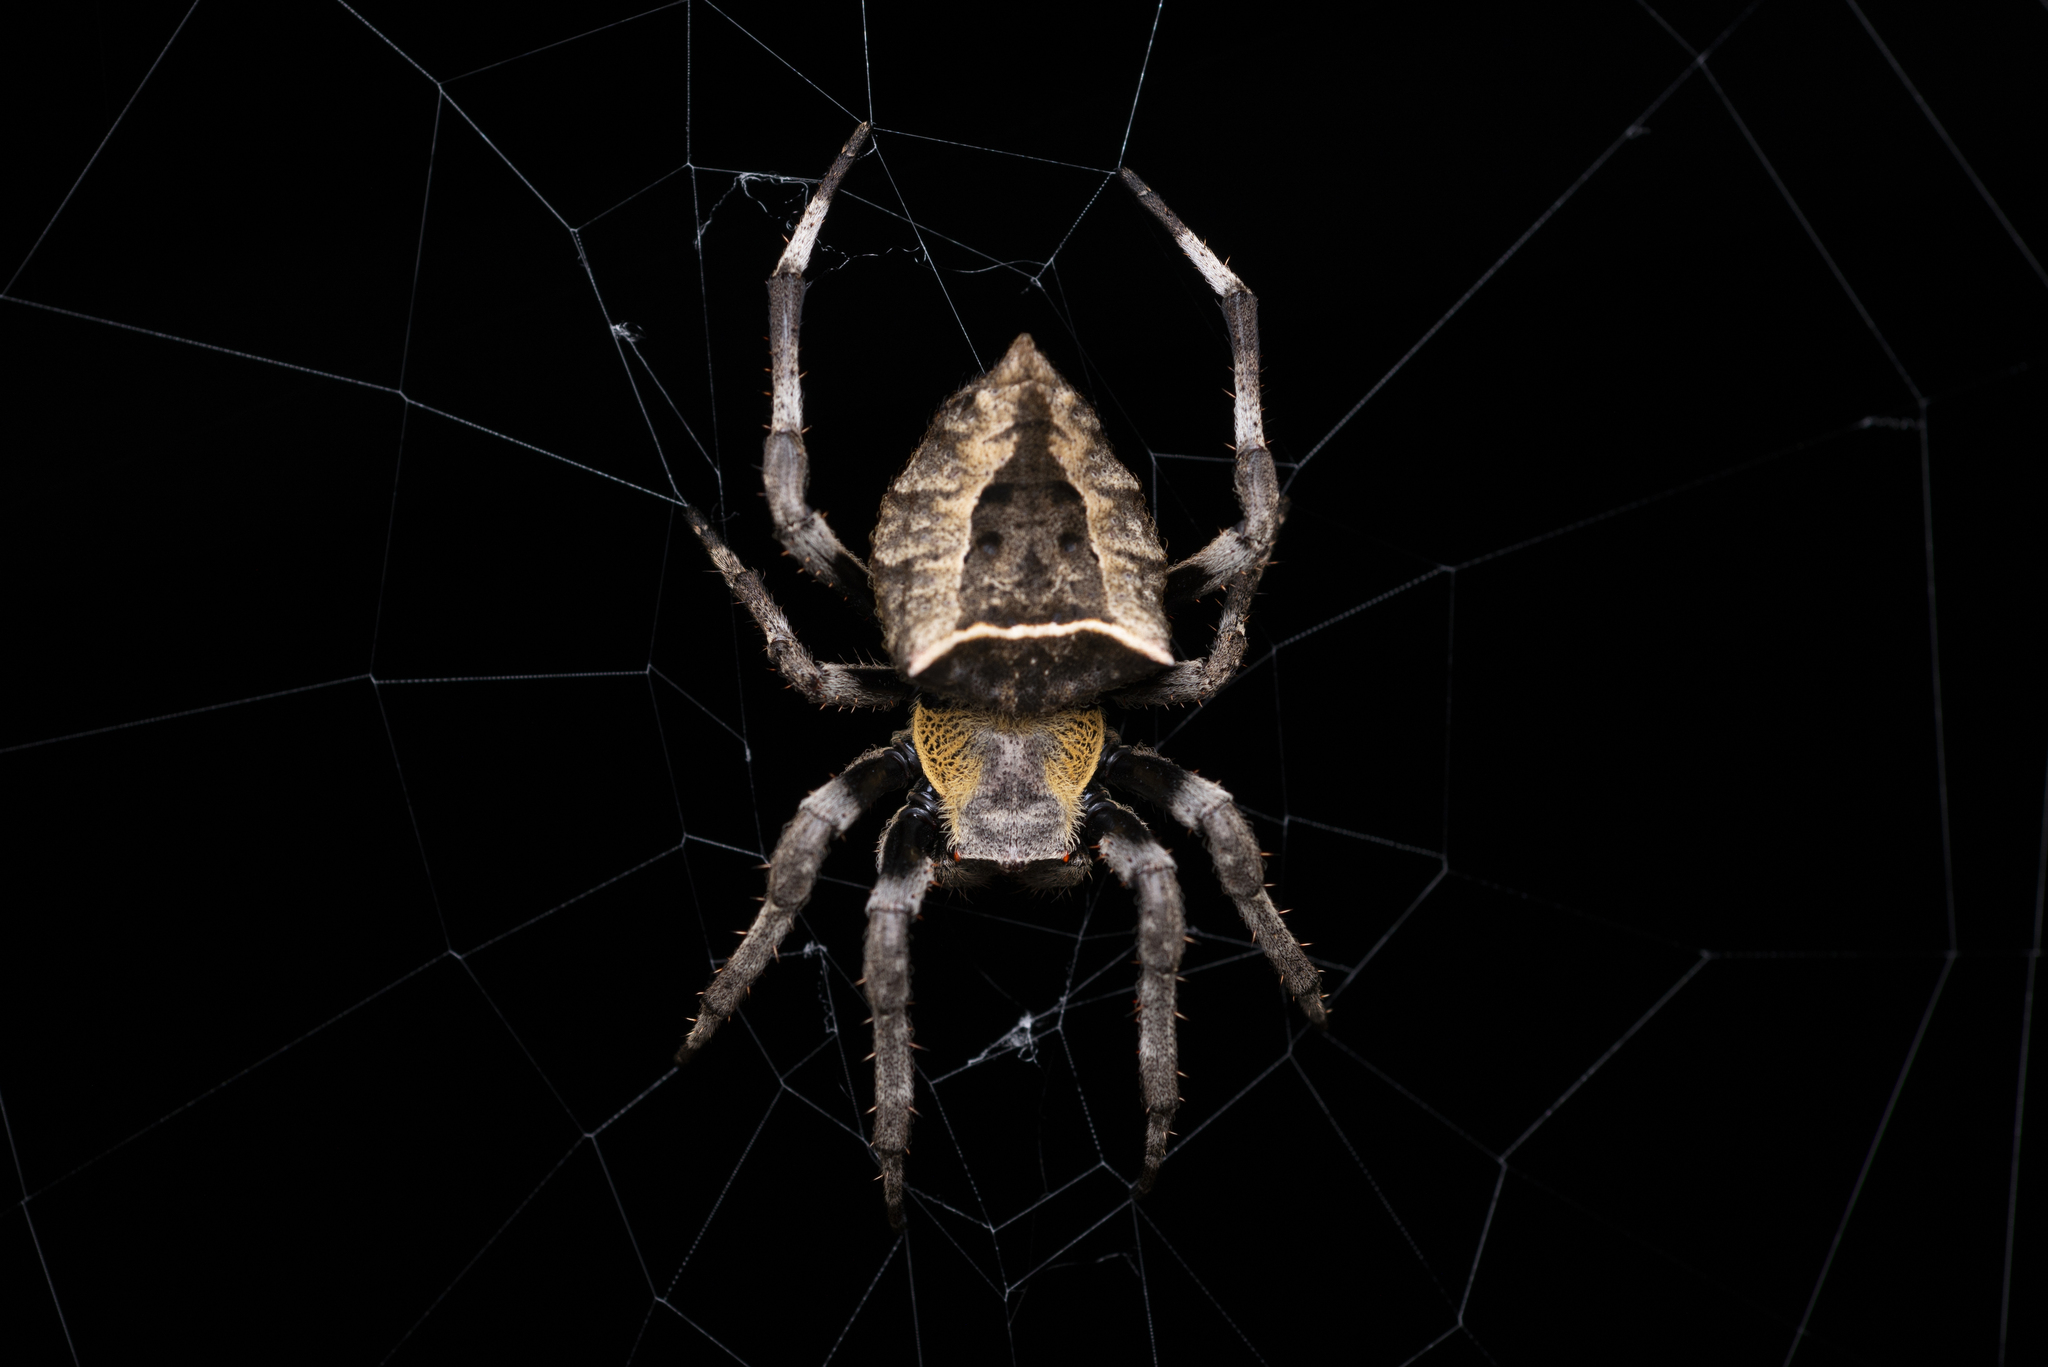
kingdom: Animalia
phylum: Arthropoda
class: Arachnida
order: Araneae
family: Araneidae
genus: Parawixia
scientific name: Parawixia dehaani
